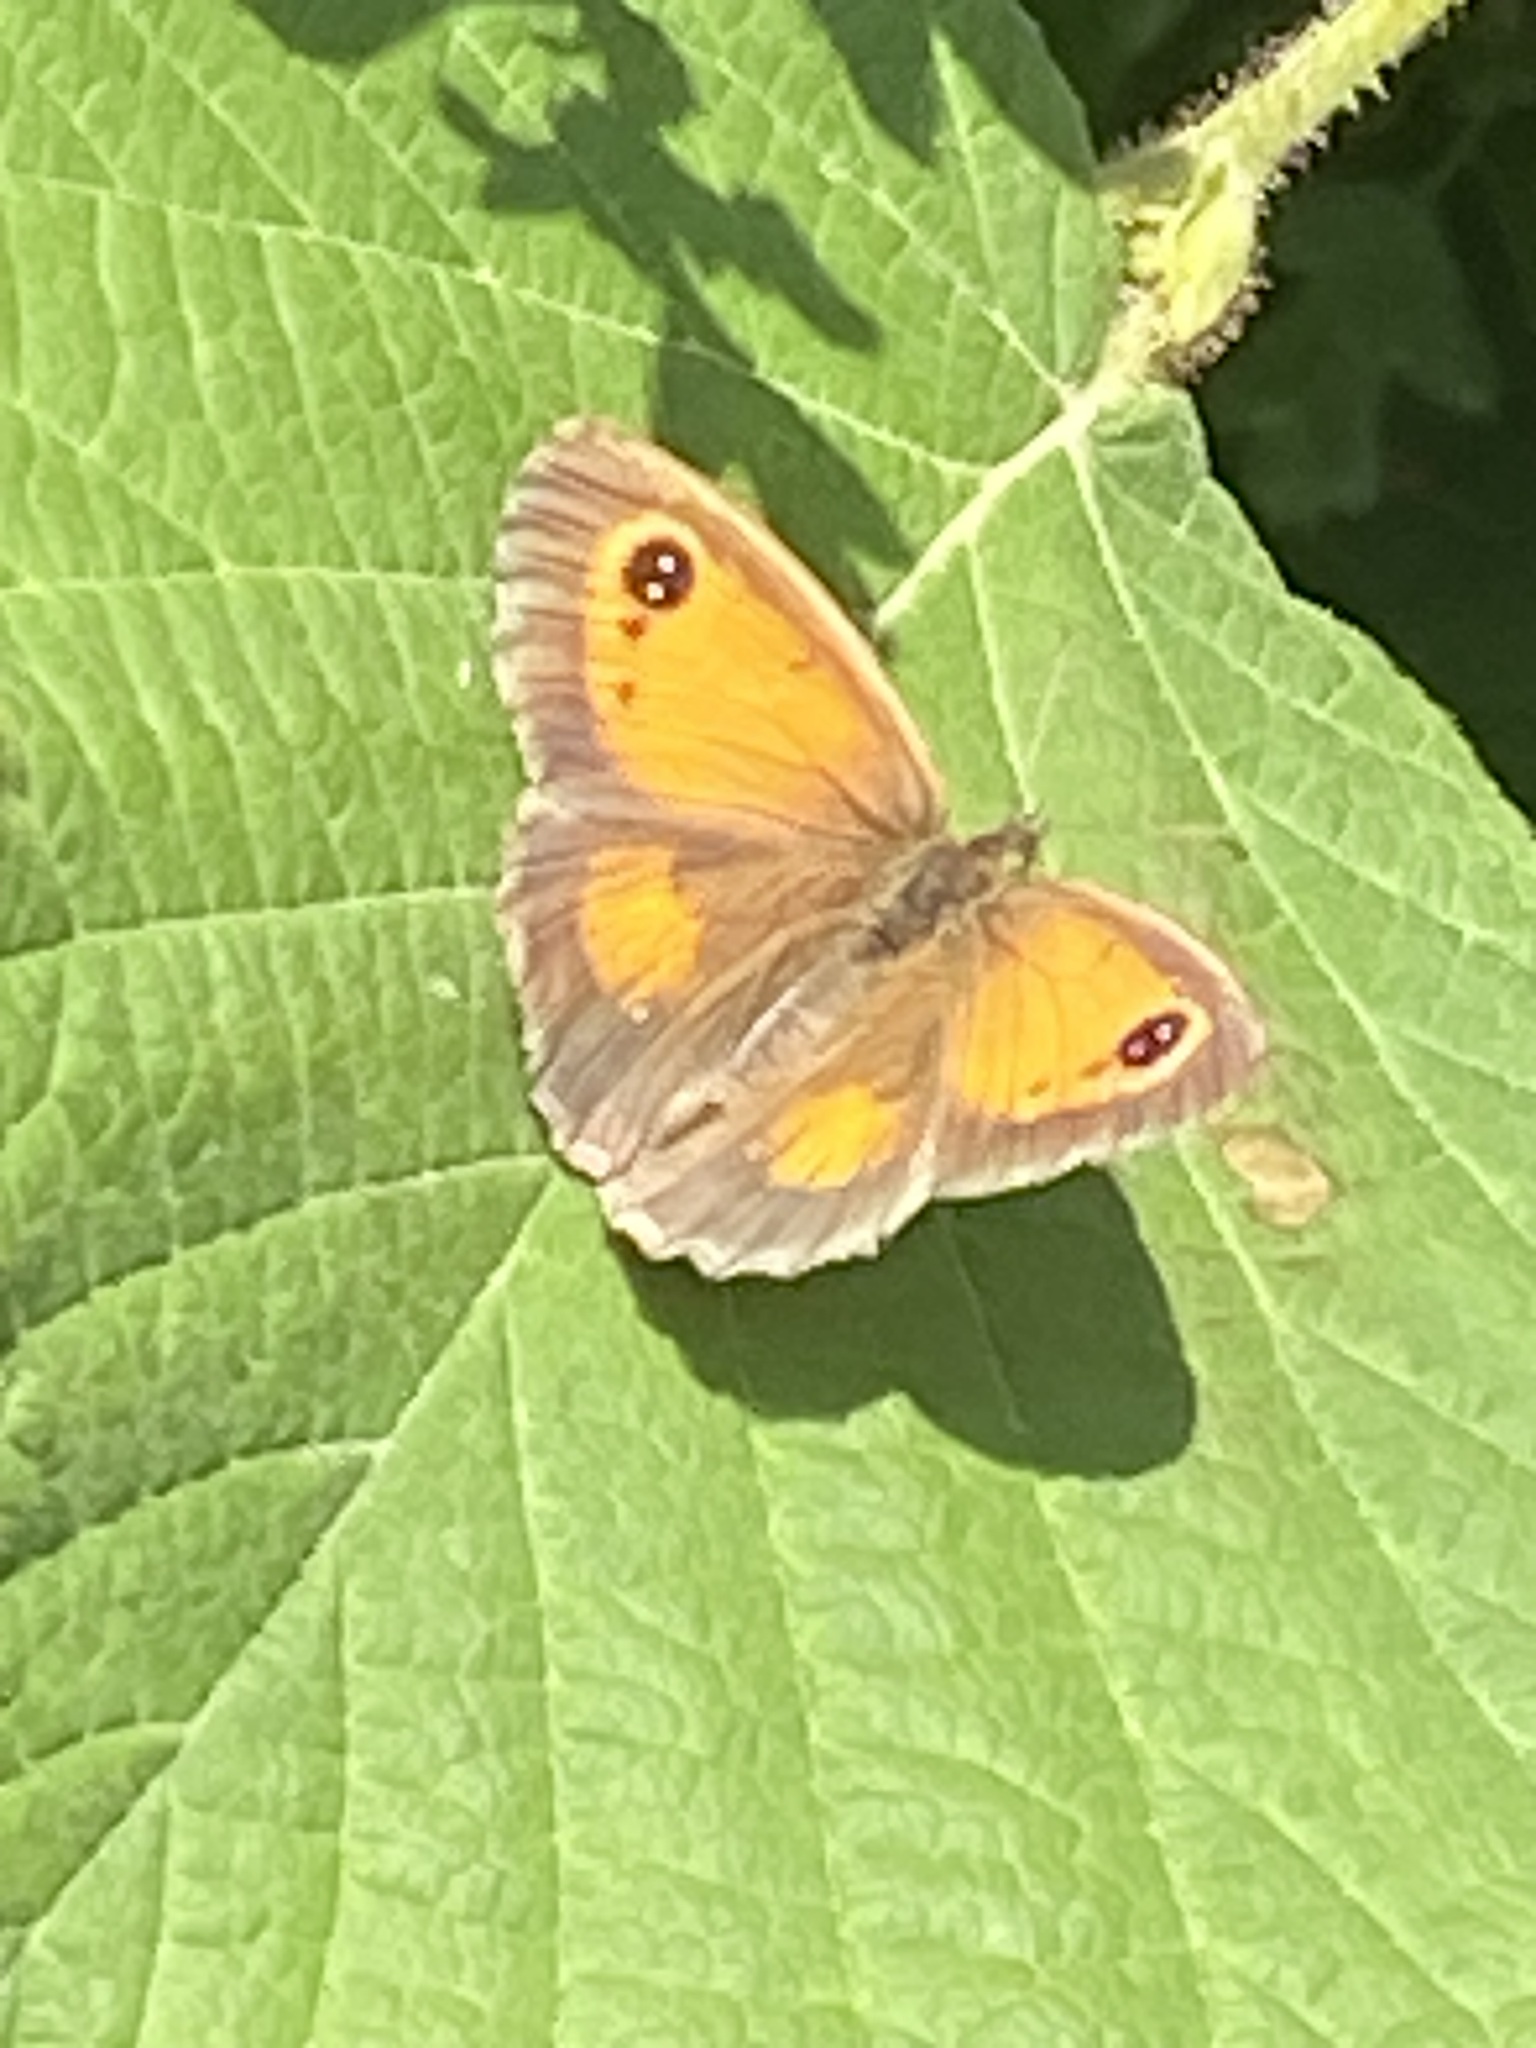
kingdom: Animalia
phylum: Arthropoda
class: Insecta
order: Lepidoptera
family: Nymphalidae
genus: Pyronia
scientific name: Pyronia tithonus
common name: Gatekeeper
